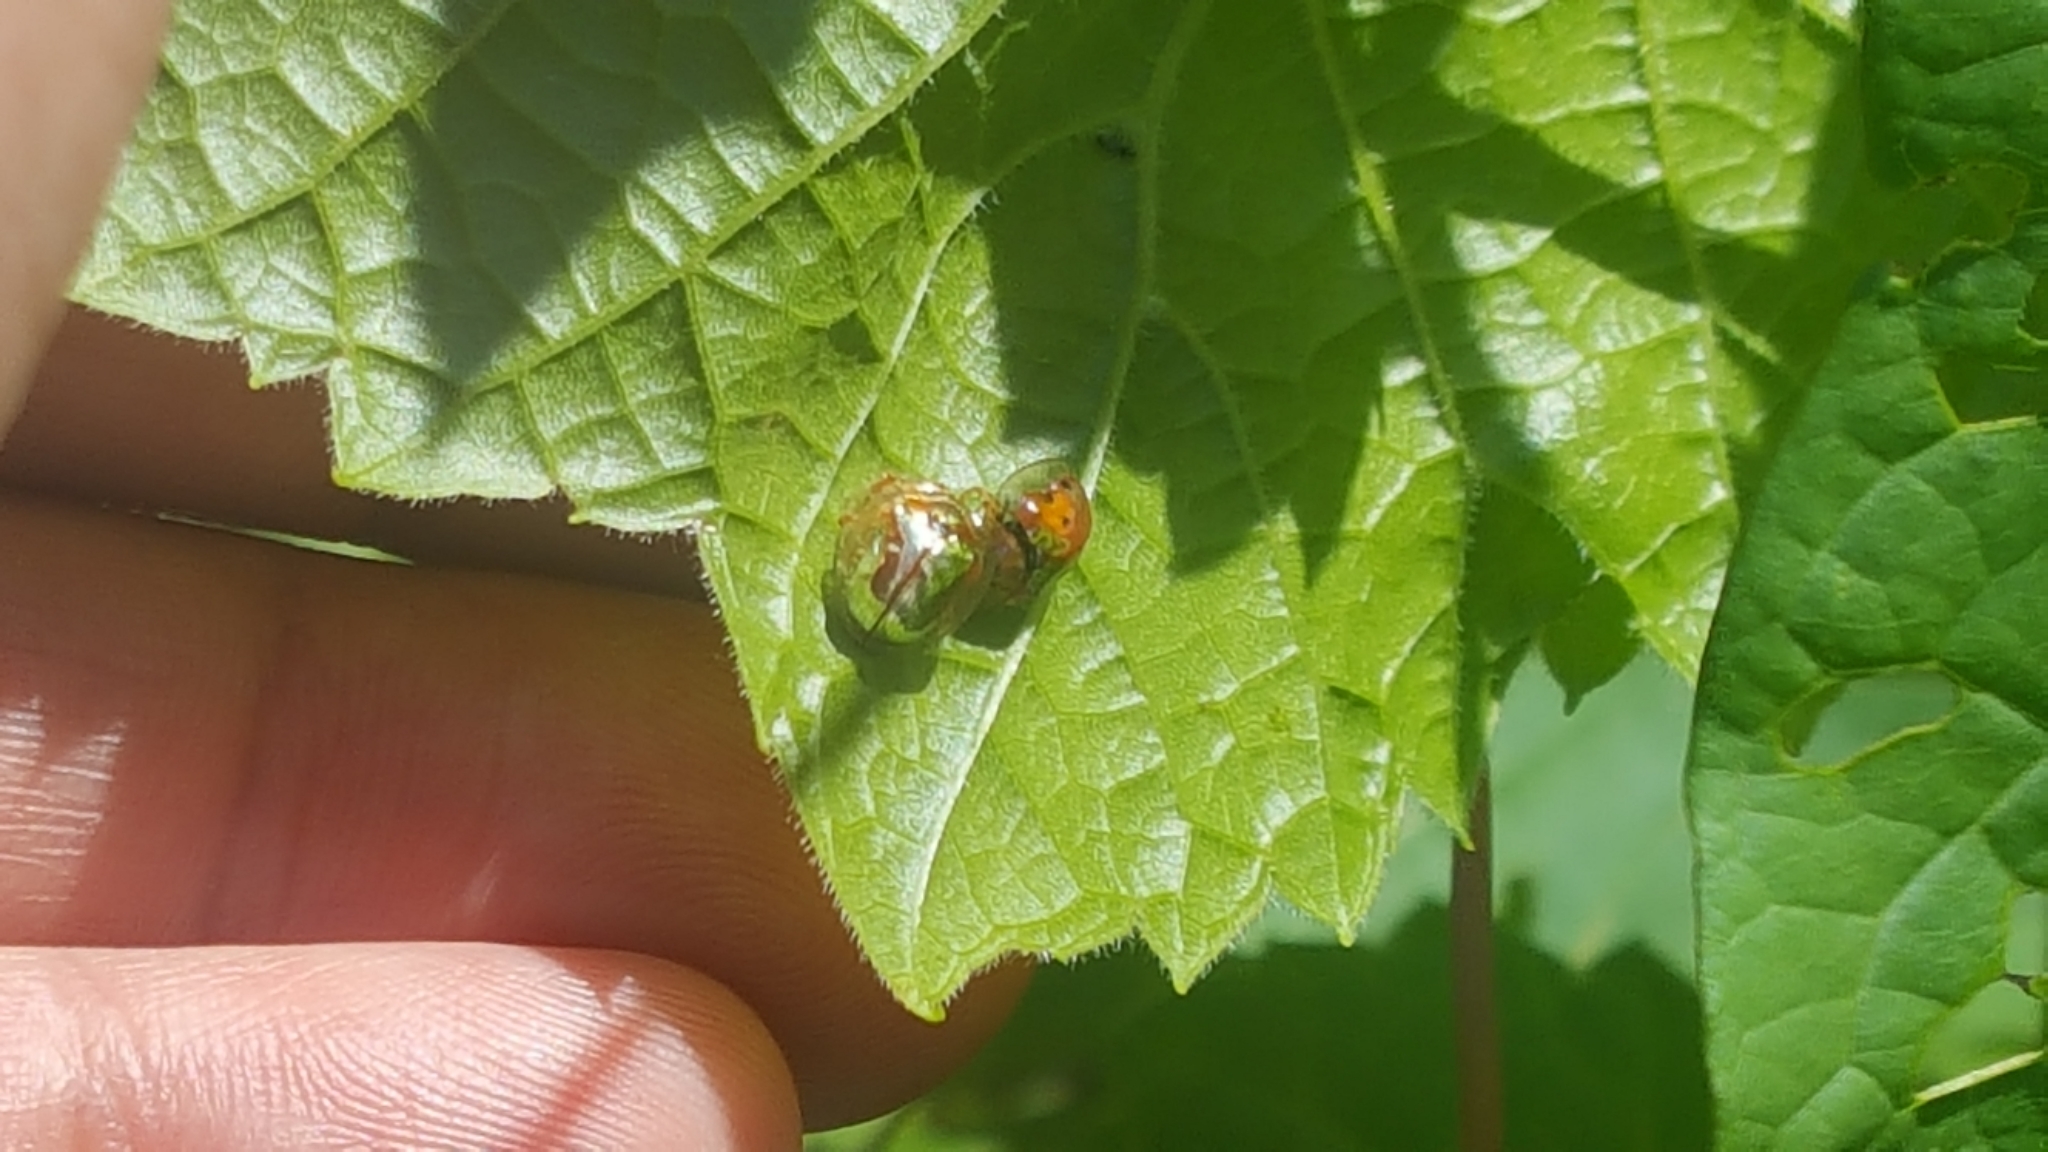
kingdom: Animalia
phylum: Arthropoda
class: Insecta
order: Coleoptera
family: Chrysomelidae
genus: Charidotella
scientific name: Charidotella sexpunctata
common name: Golden tortoise beetle
